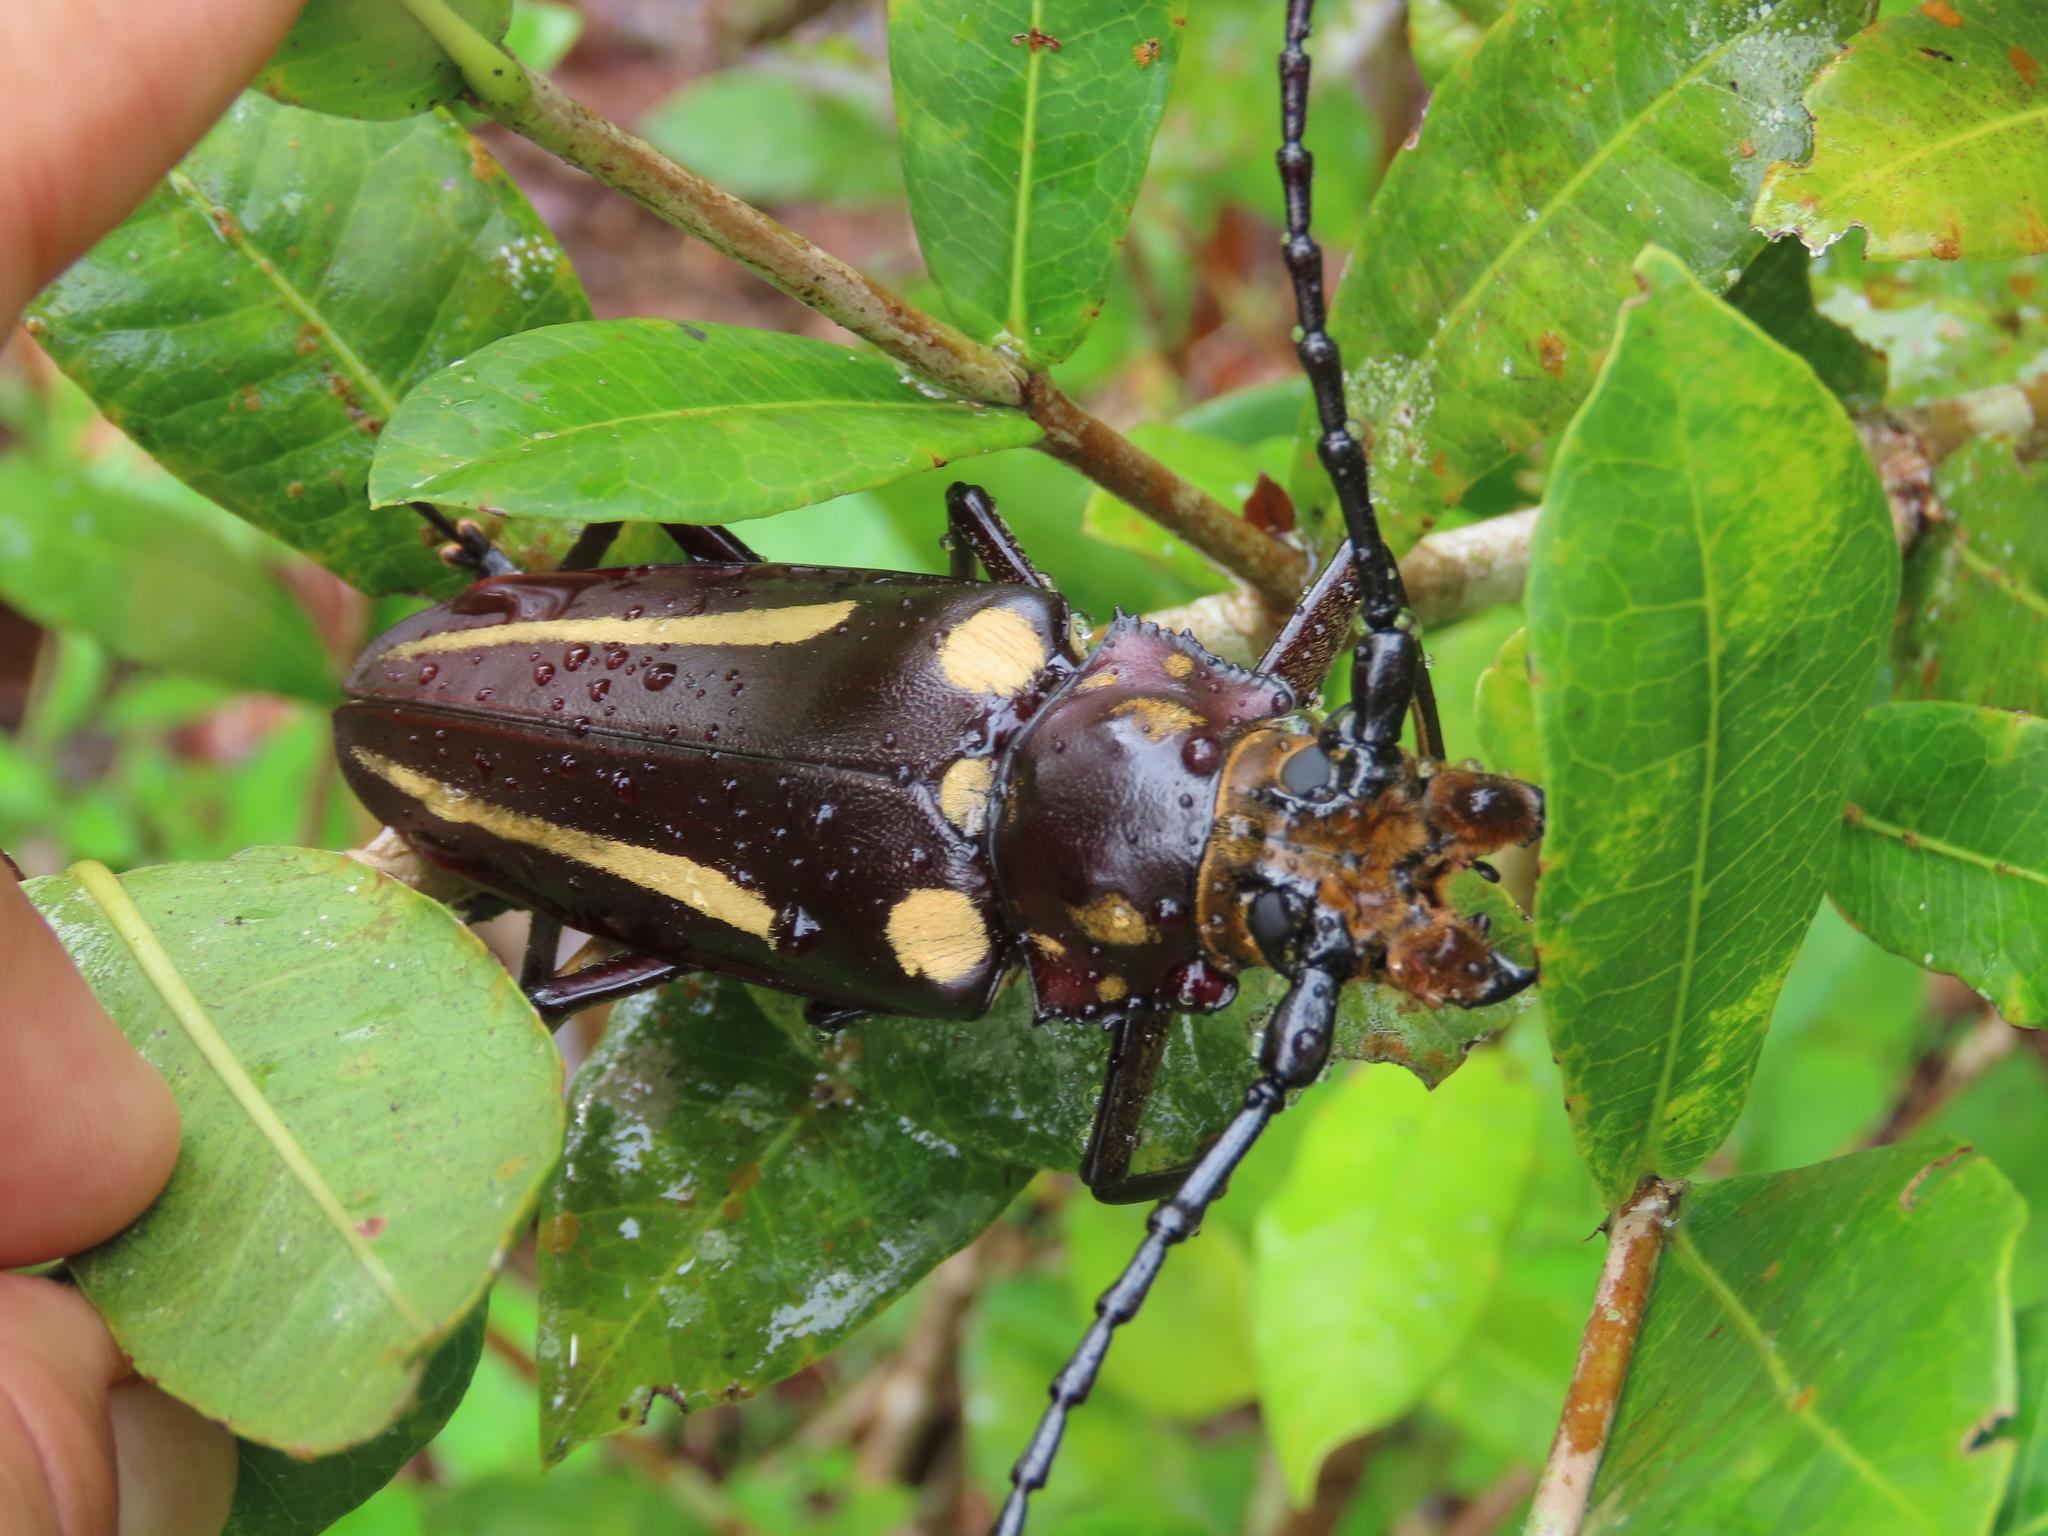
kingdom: Animalia
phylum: Arthropoda
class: Insecta
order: Coleoptera
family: Cerambycidae
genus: Callipogon
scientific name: Callipogon lemoinei
